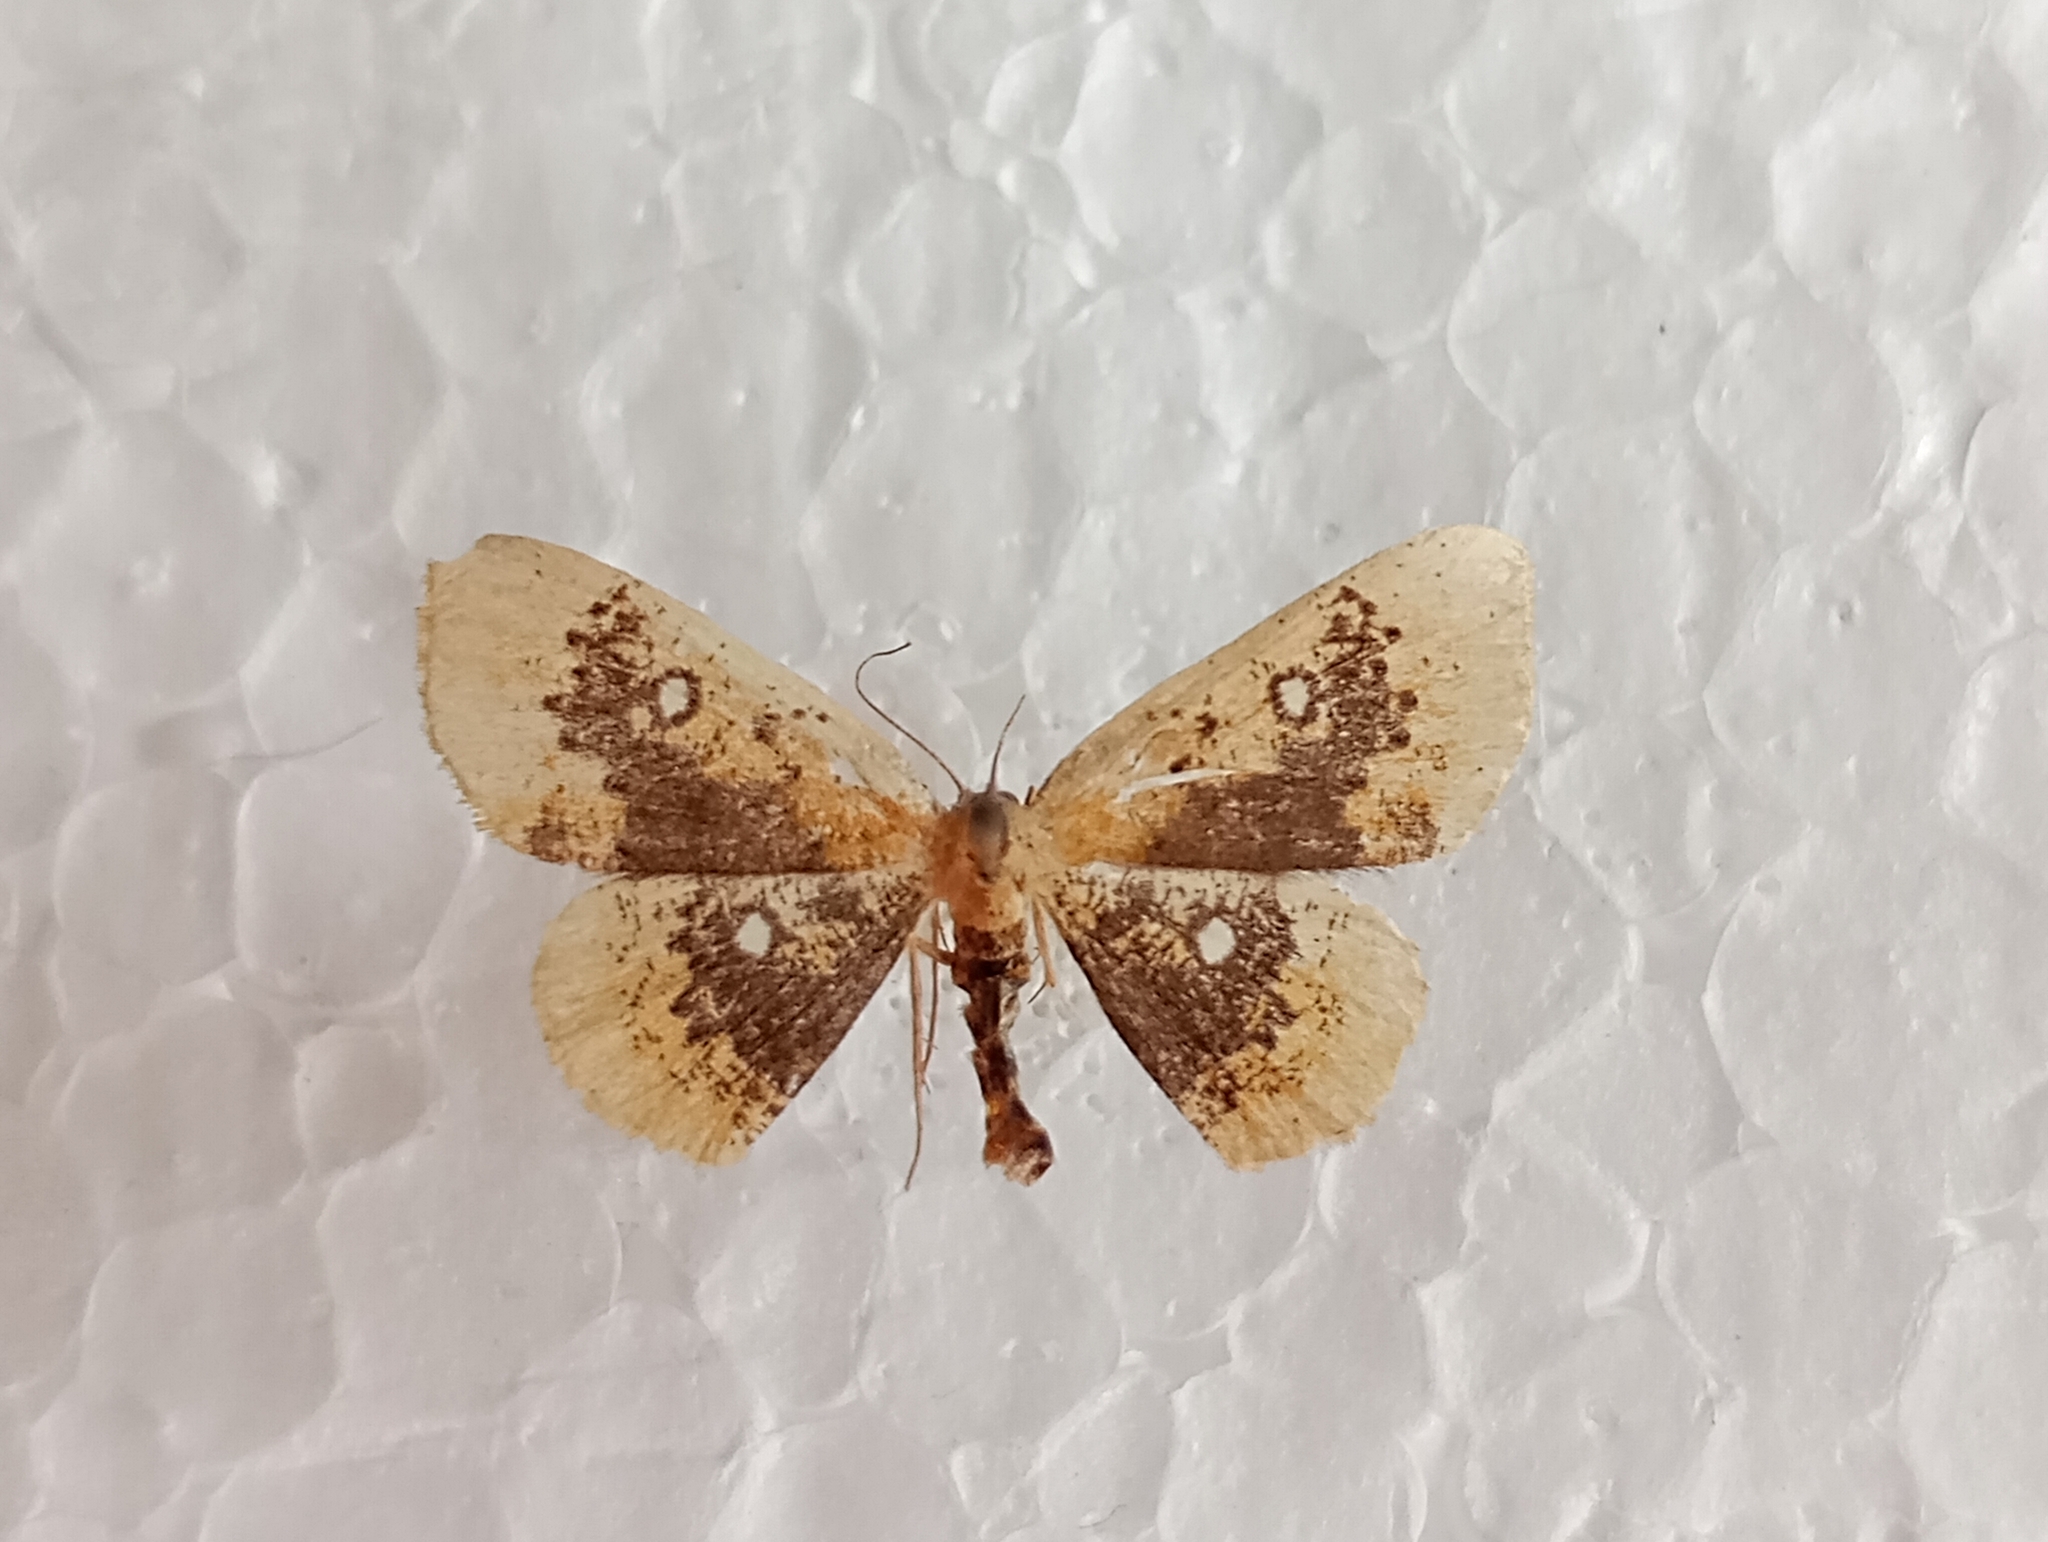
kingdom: Animalia
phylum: Arthropoda
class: Insecta
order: Lepidoptera
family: Geometridae
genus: Cyclophora
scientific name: Cyclophora albiocellaria
